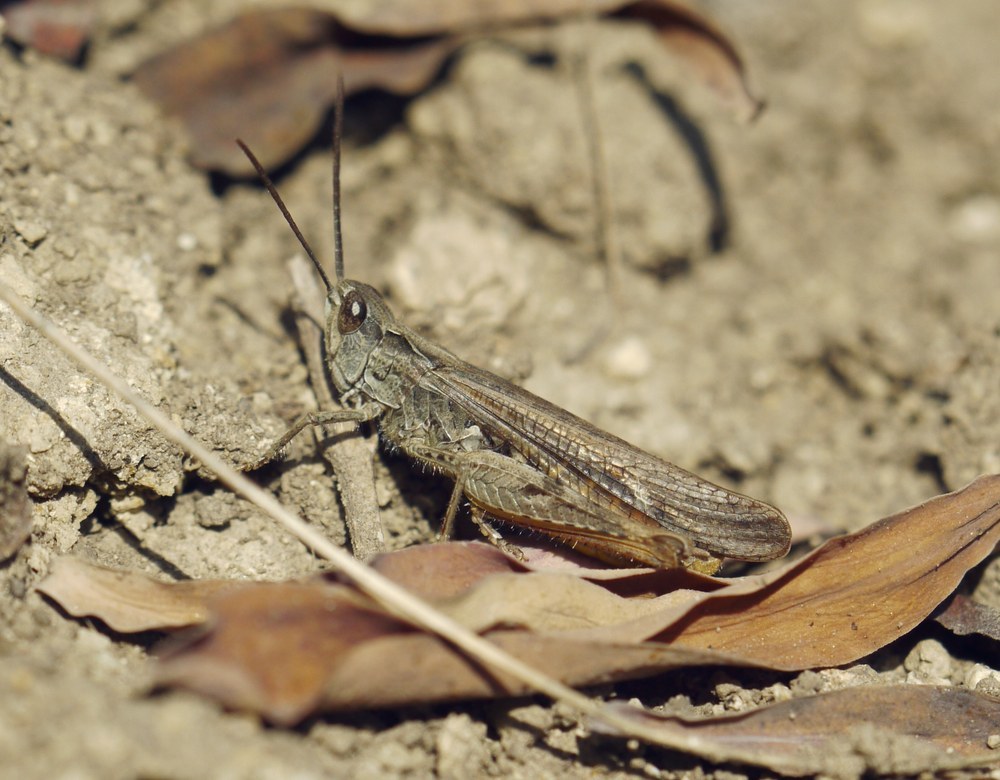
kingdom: Animalia
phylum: Arthropoda
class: Insecta
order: Orthoptera
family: Acrididae
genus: Chorthippus
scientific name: Chorthippus brunneus
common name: Field grasshopper
